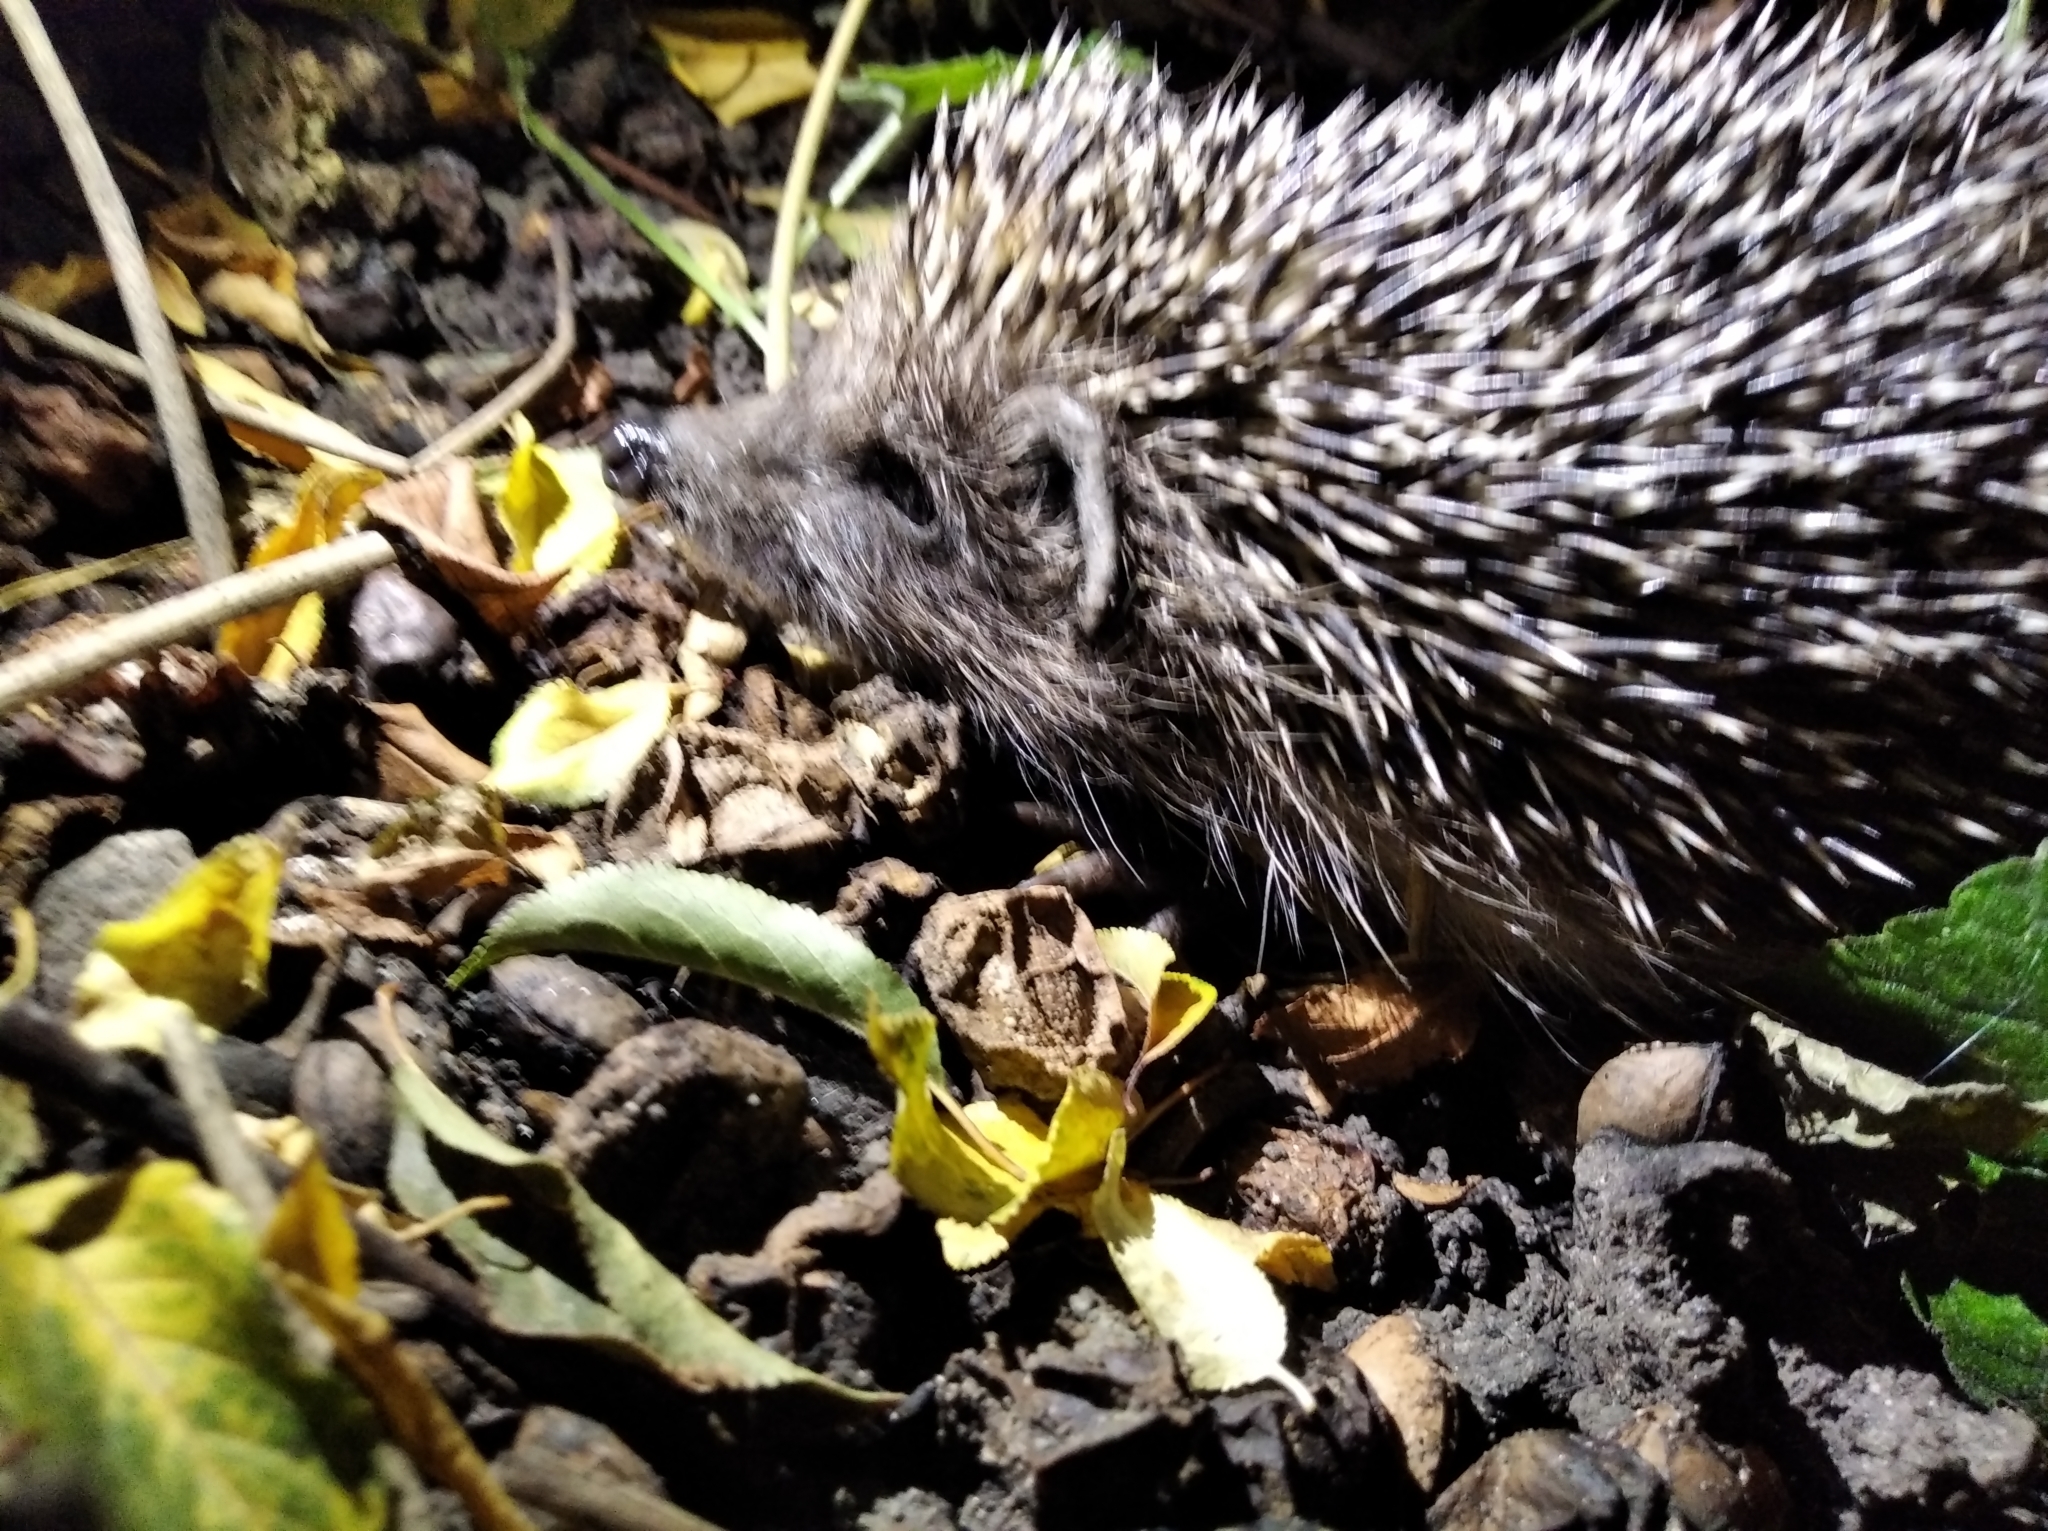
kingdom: Animalia
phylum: Chordata
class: Mammalia
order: Erinaceomorpha
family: Erinaceidae
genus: Erinaceus
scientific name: Erinaceus roumanicus
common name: Northern white-breasted hedgehog
